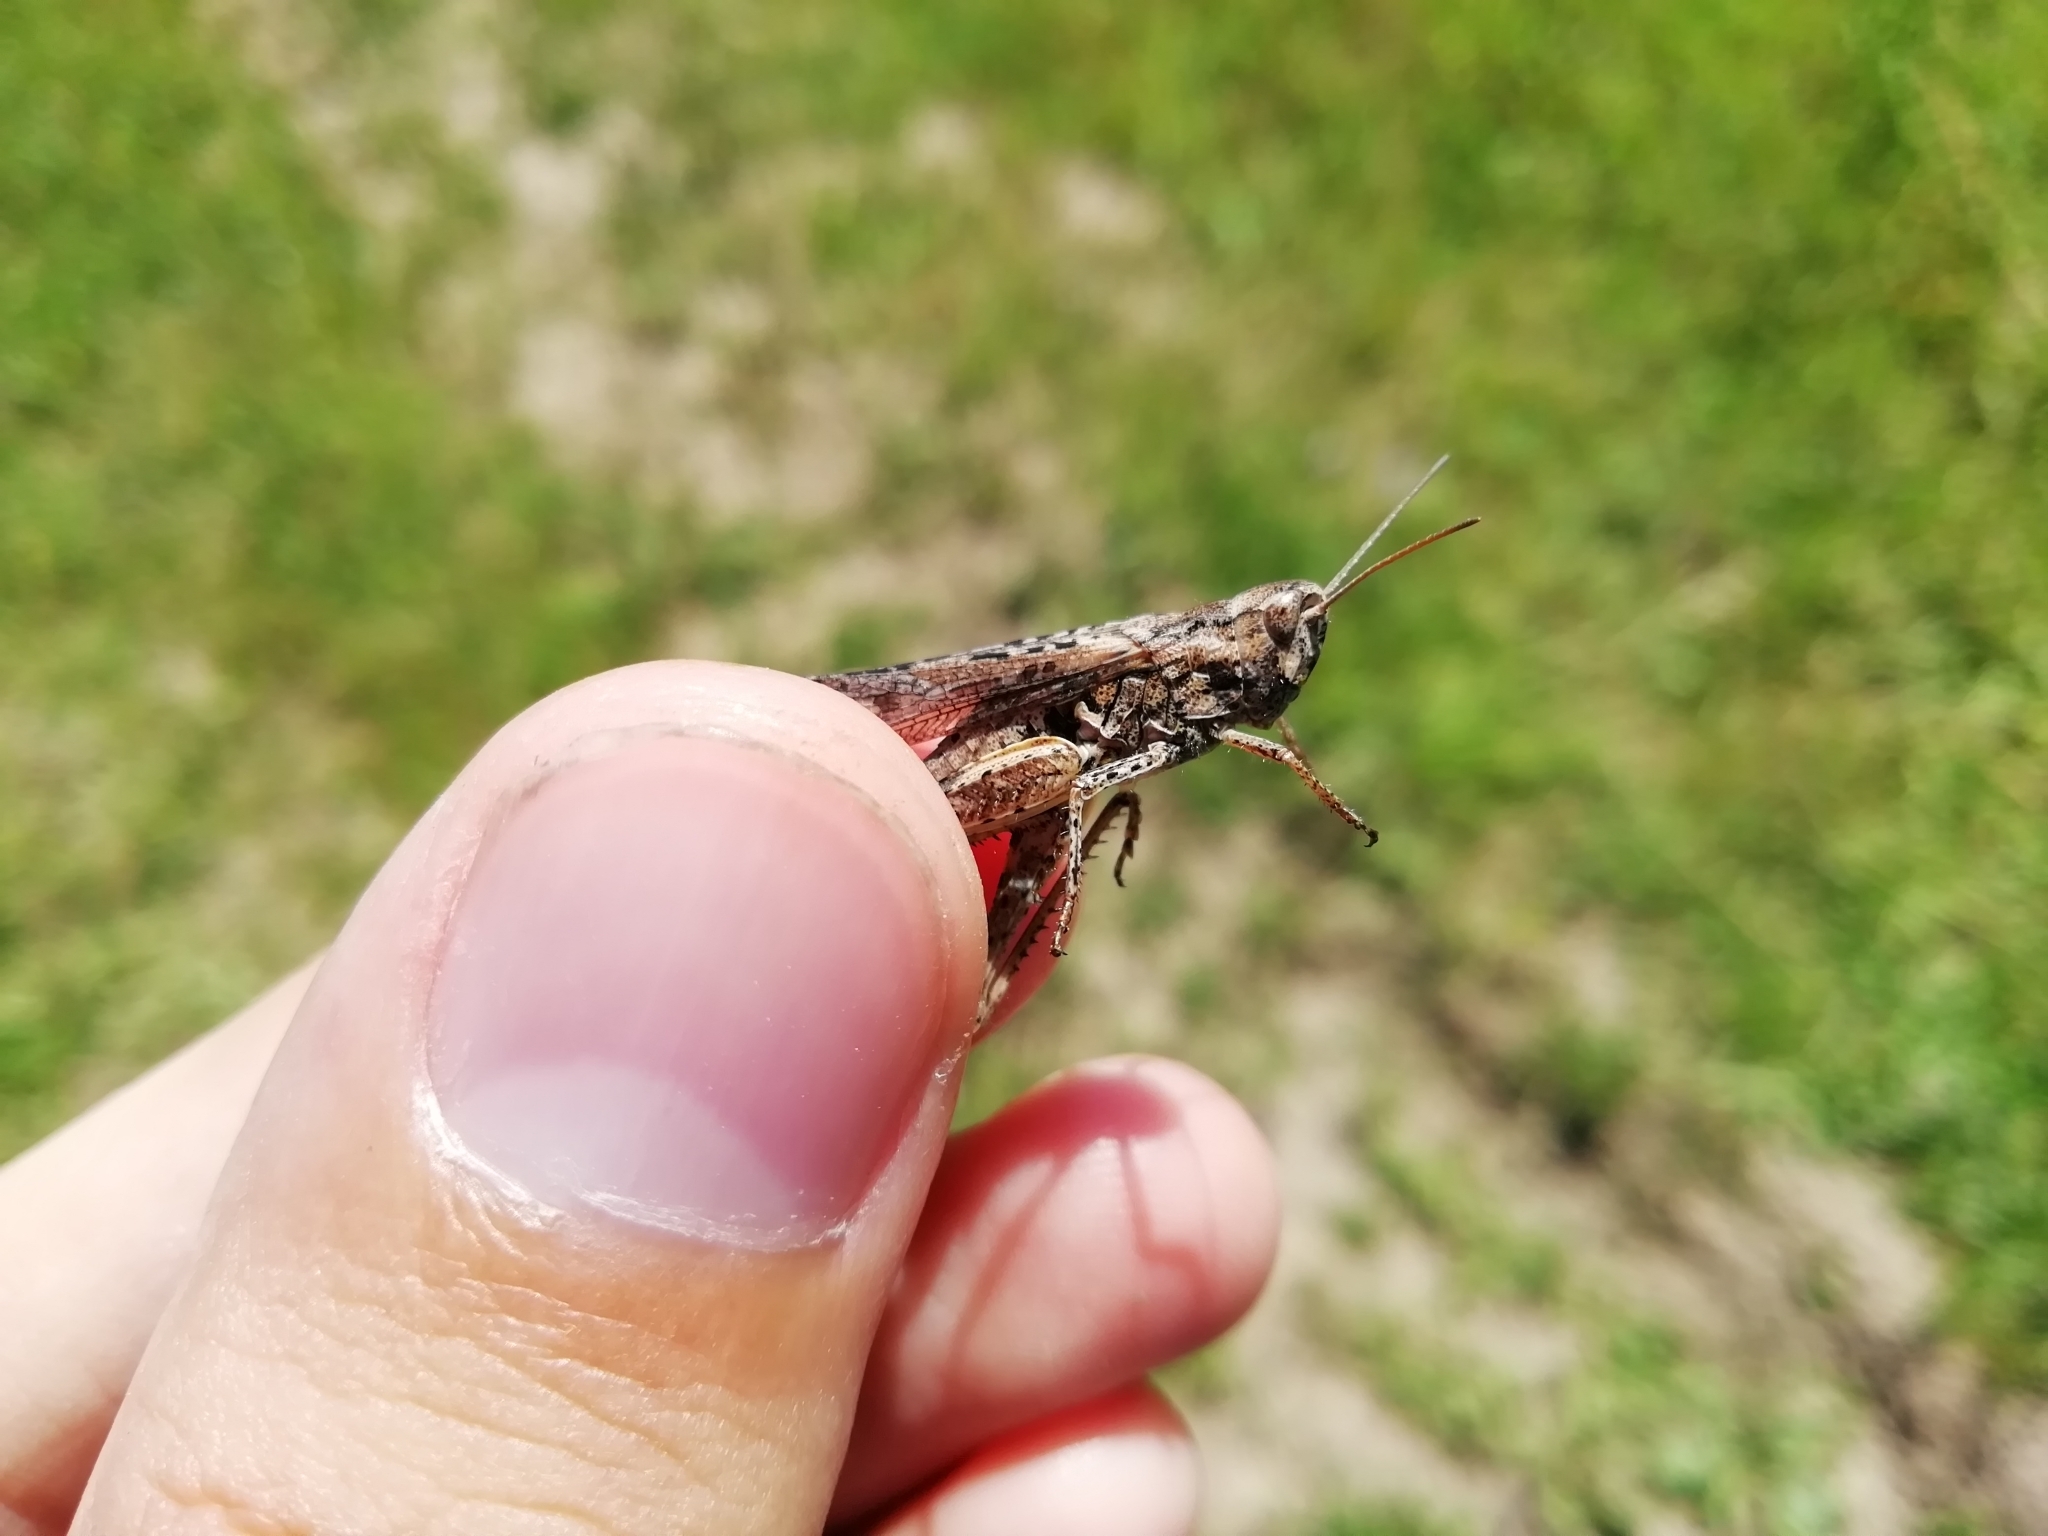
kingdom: Animalia
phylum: Arthropoda
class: Insecta
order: Orthoptera
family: Acrididae
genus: Chorthippus
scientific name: Chorthippus biguttulus
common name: Bow-winged grasshopper
